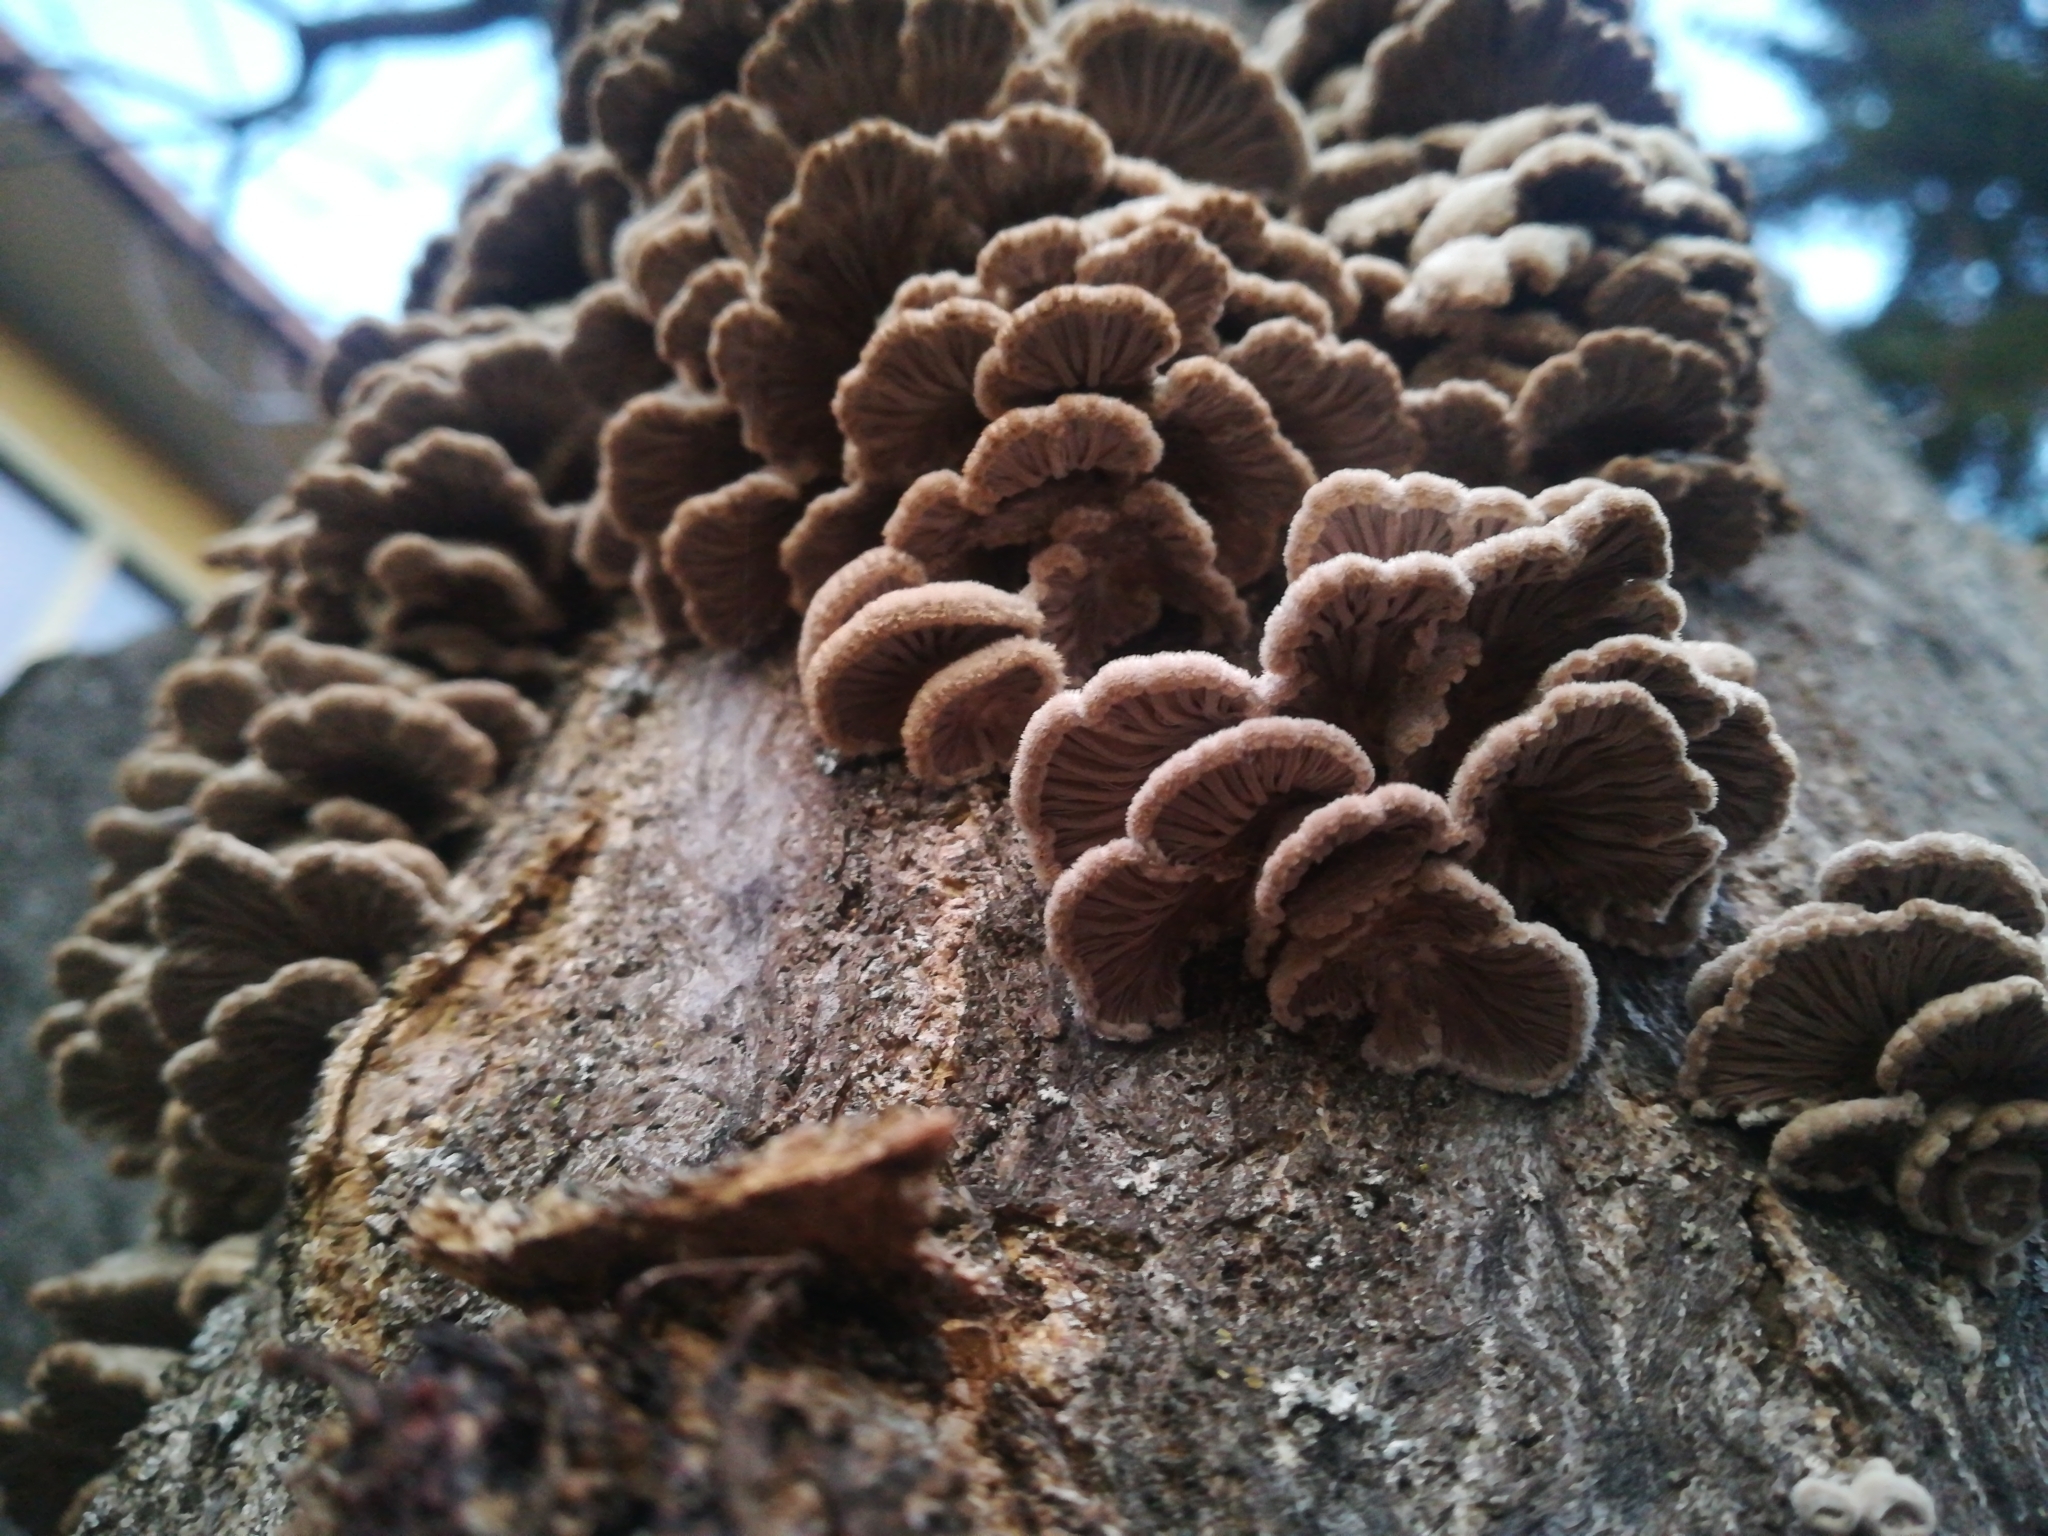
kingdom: Fungi
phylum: Basidiomycota
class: Agaricomycetes
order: Agaricales
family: Schizophyllaceae
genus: Schizophyllum
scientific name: Schizophyllum commune
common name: Common porecrust
